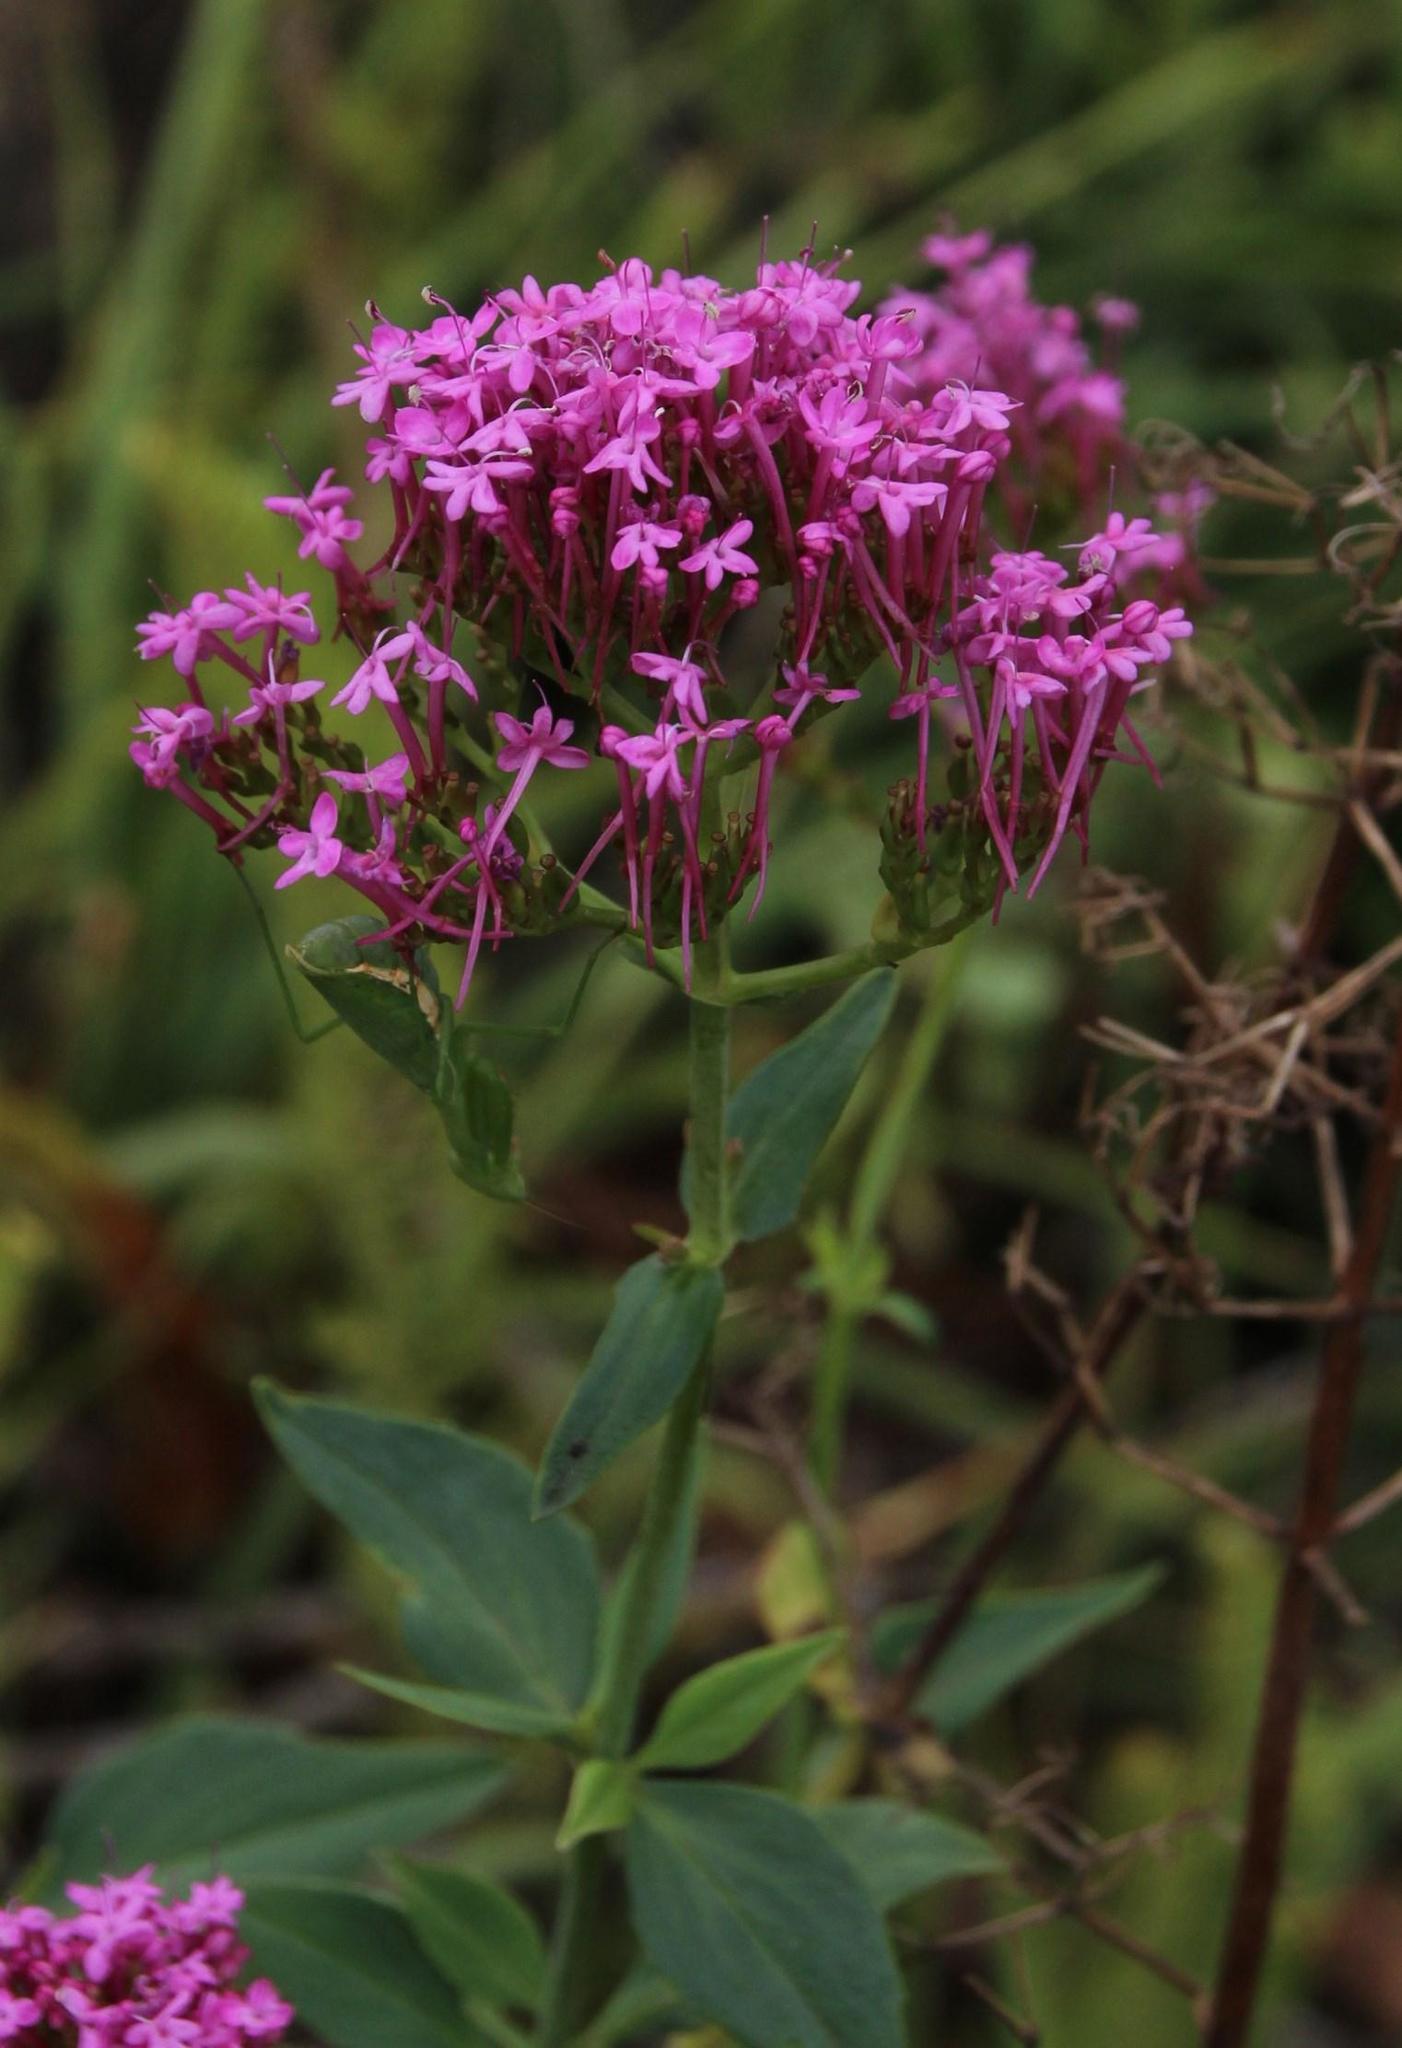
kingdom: Plantae
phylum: Tracheophyta
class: Magnoliopsida
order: Dipsacales
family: Caprifoliaceae
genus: Centranthus
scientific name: Centranthus ruber
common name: Red valerian
